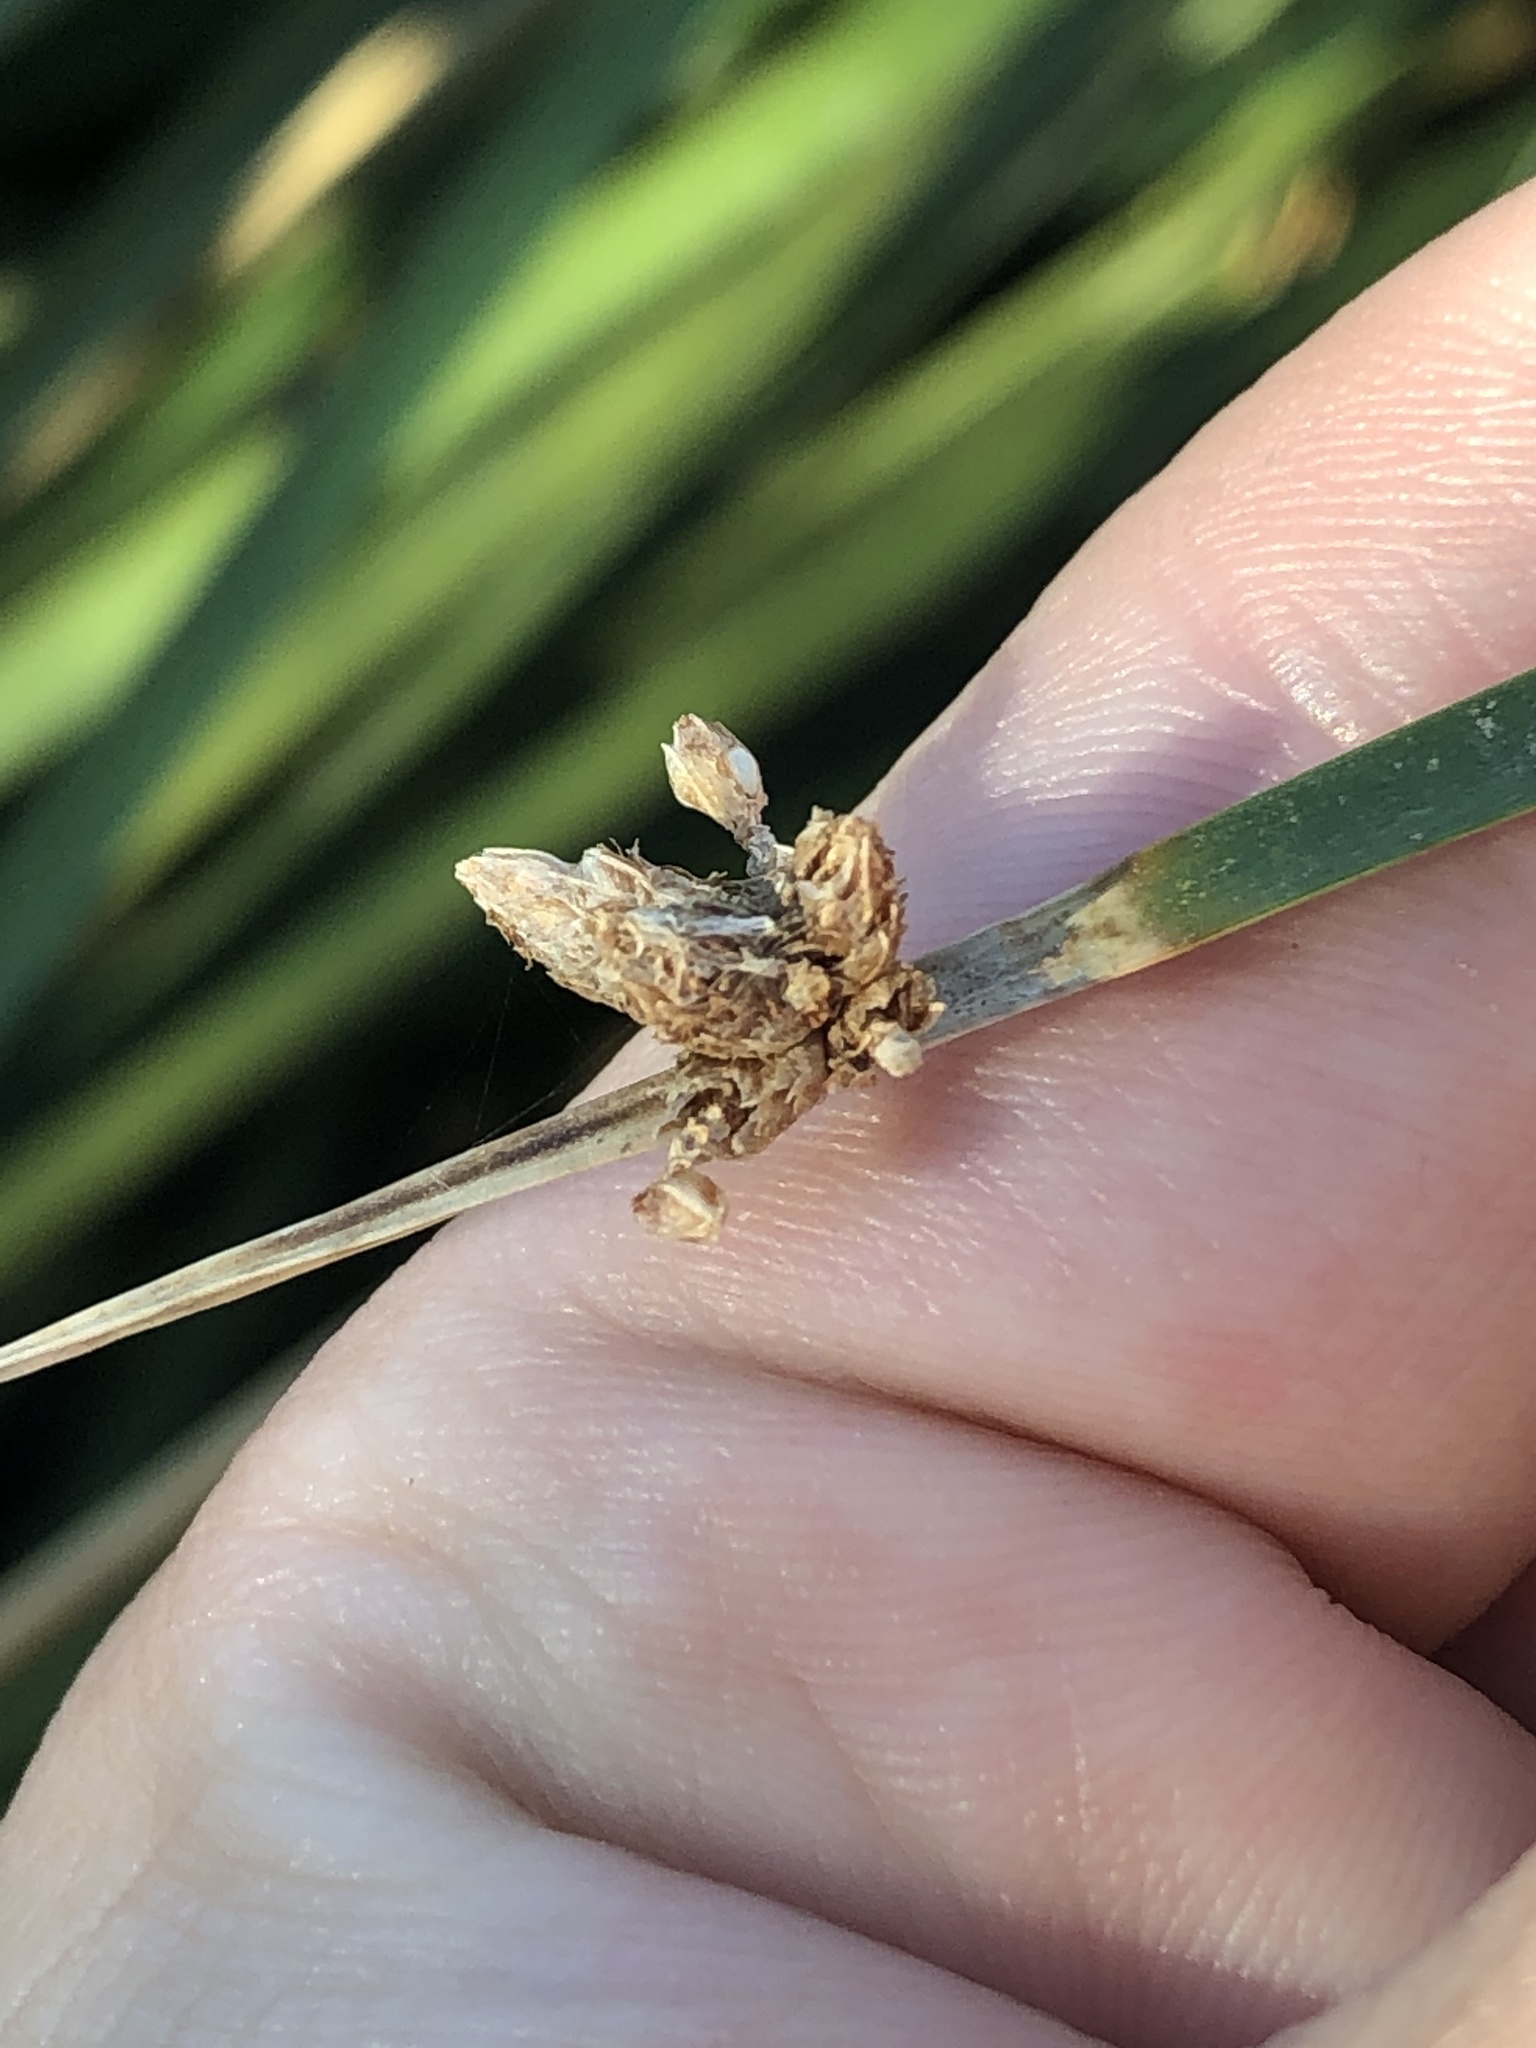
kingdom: Plantae
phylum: Tracheophyta
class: Liliopsida
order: Poales
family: Cyperaceae
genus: Schoenoplectus
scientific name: Schoenoplectus americanus
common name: American three-square bulrush
